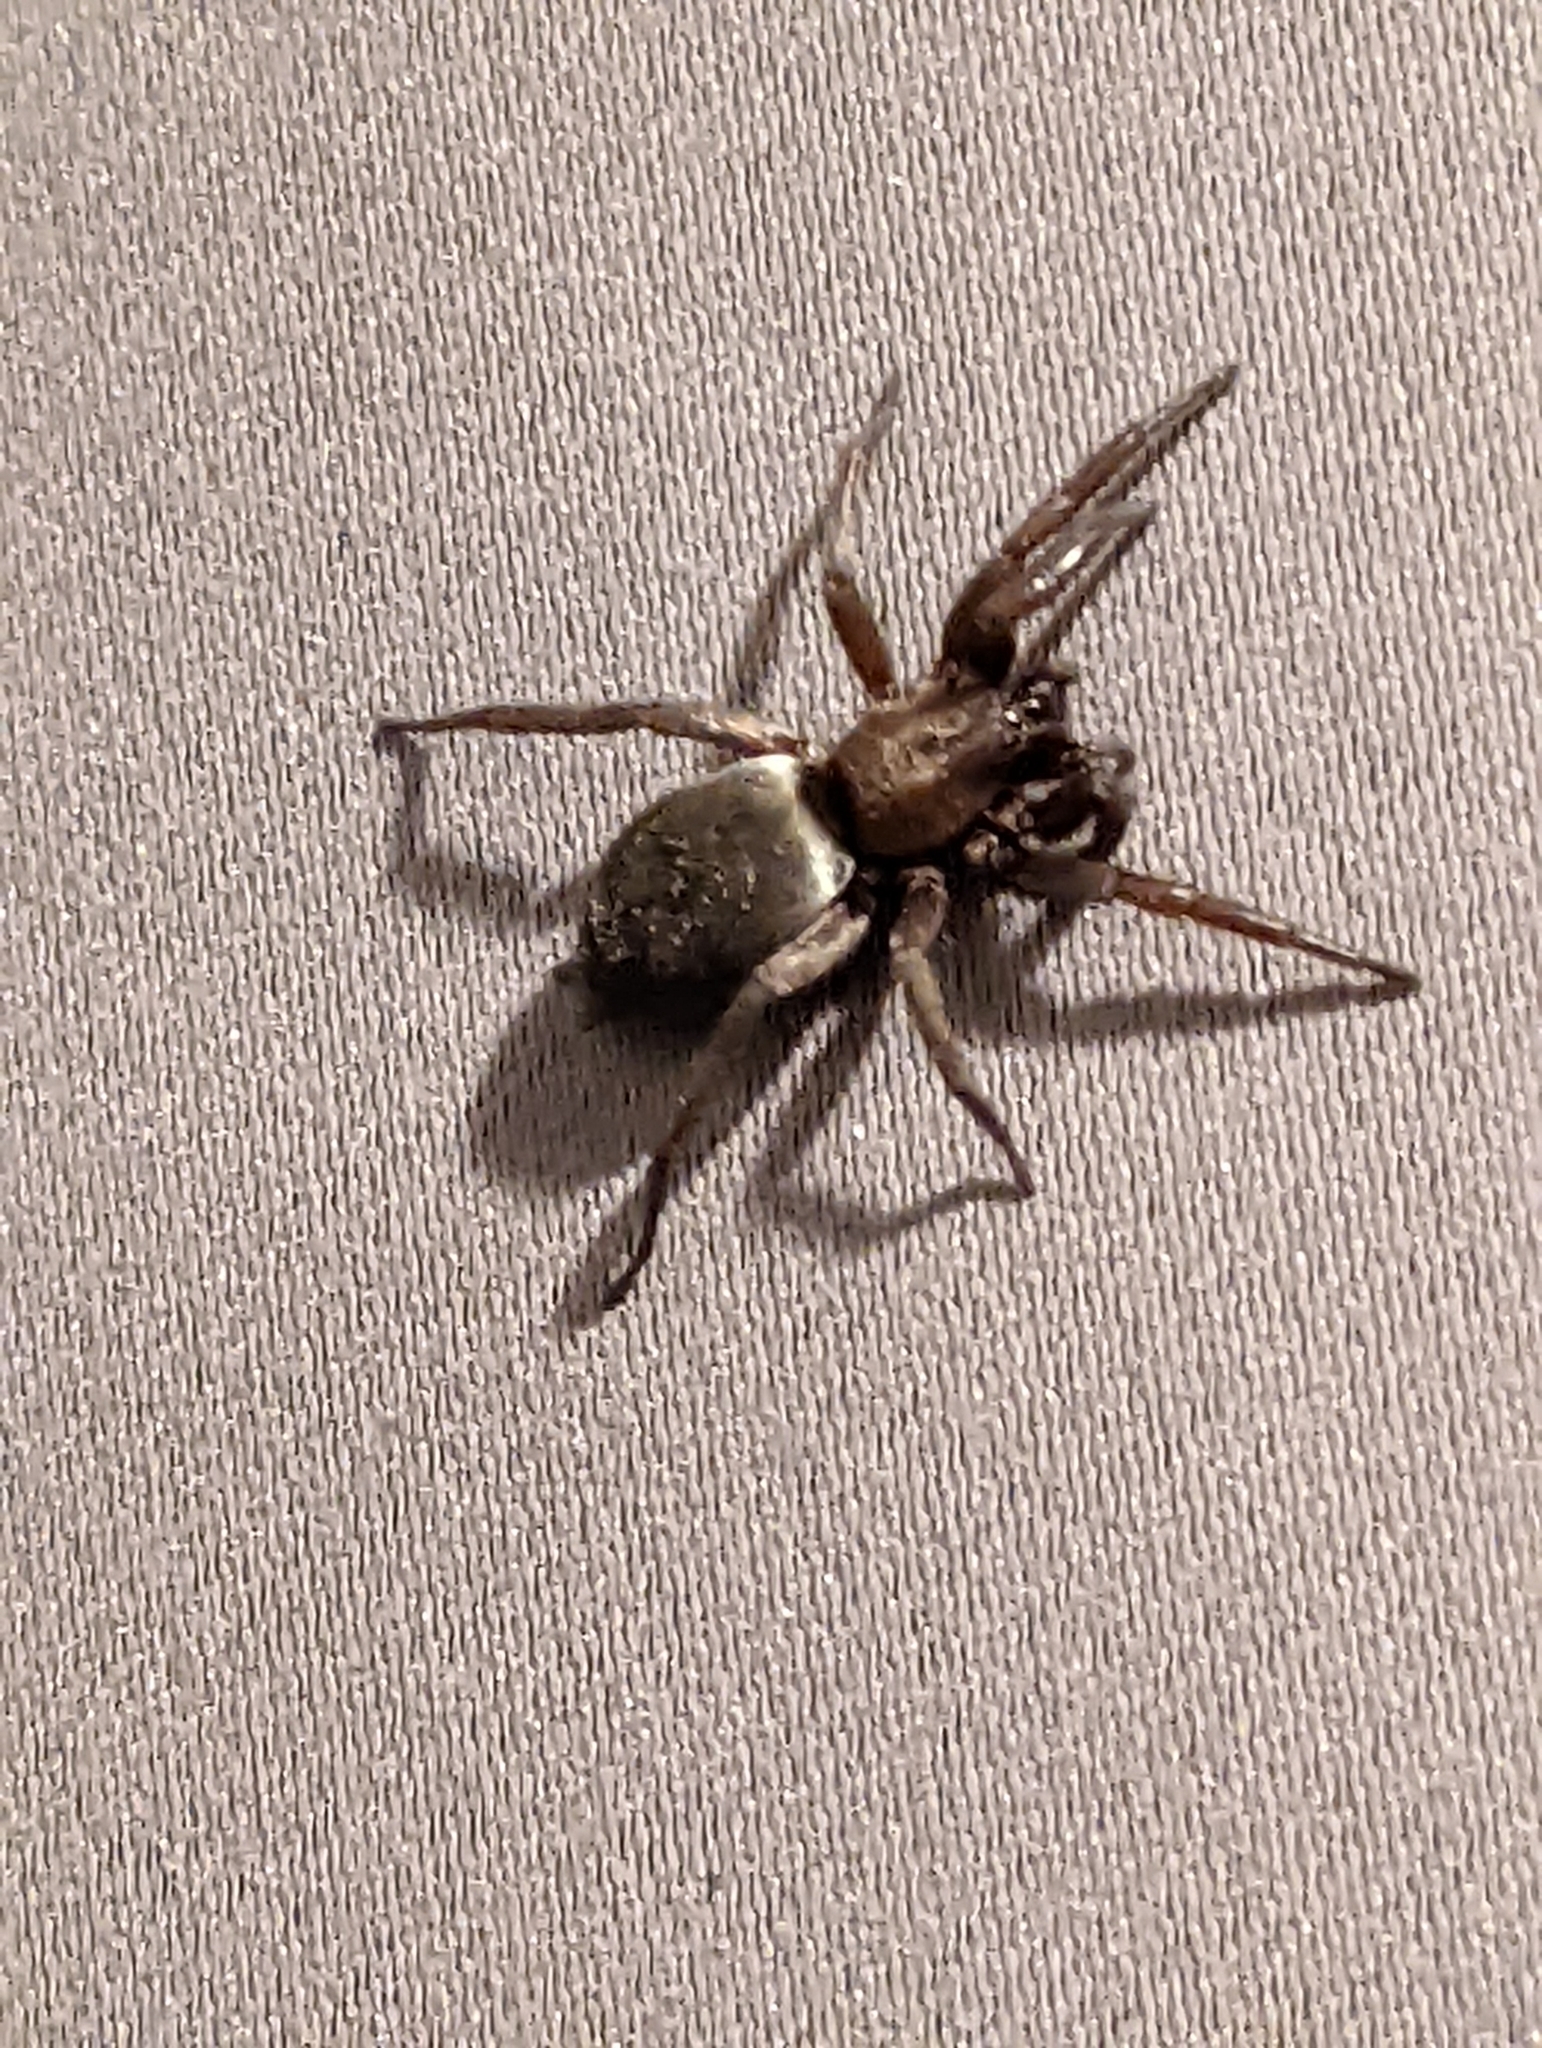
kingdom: Animalia
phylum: Arthropoda
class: Arachnida
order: Araneae
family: Gnaphosidae
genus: Scotophaeus
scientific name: Scotophaeus blackwalli
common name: Mouse spider
